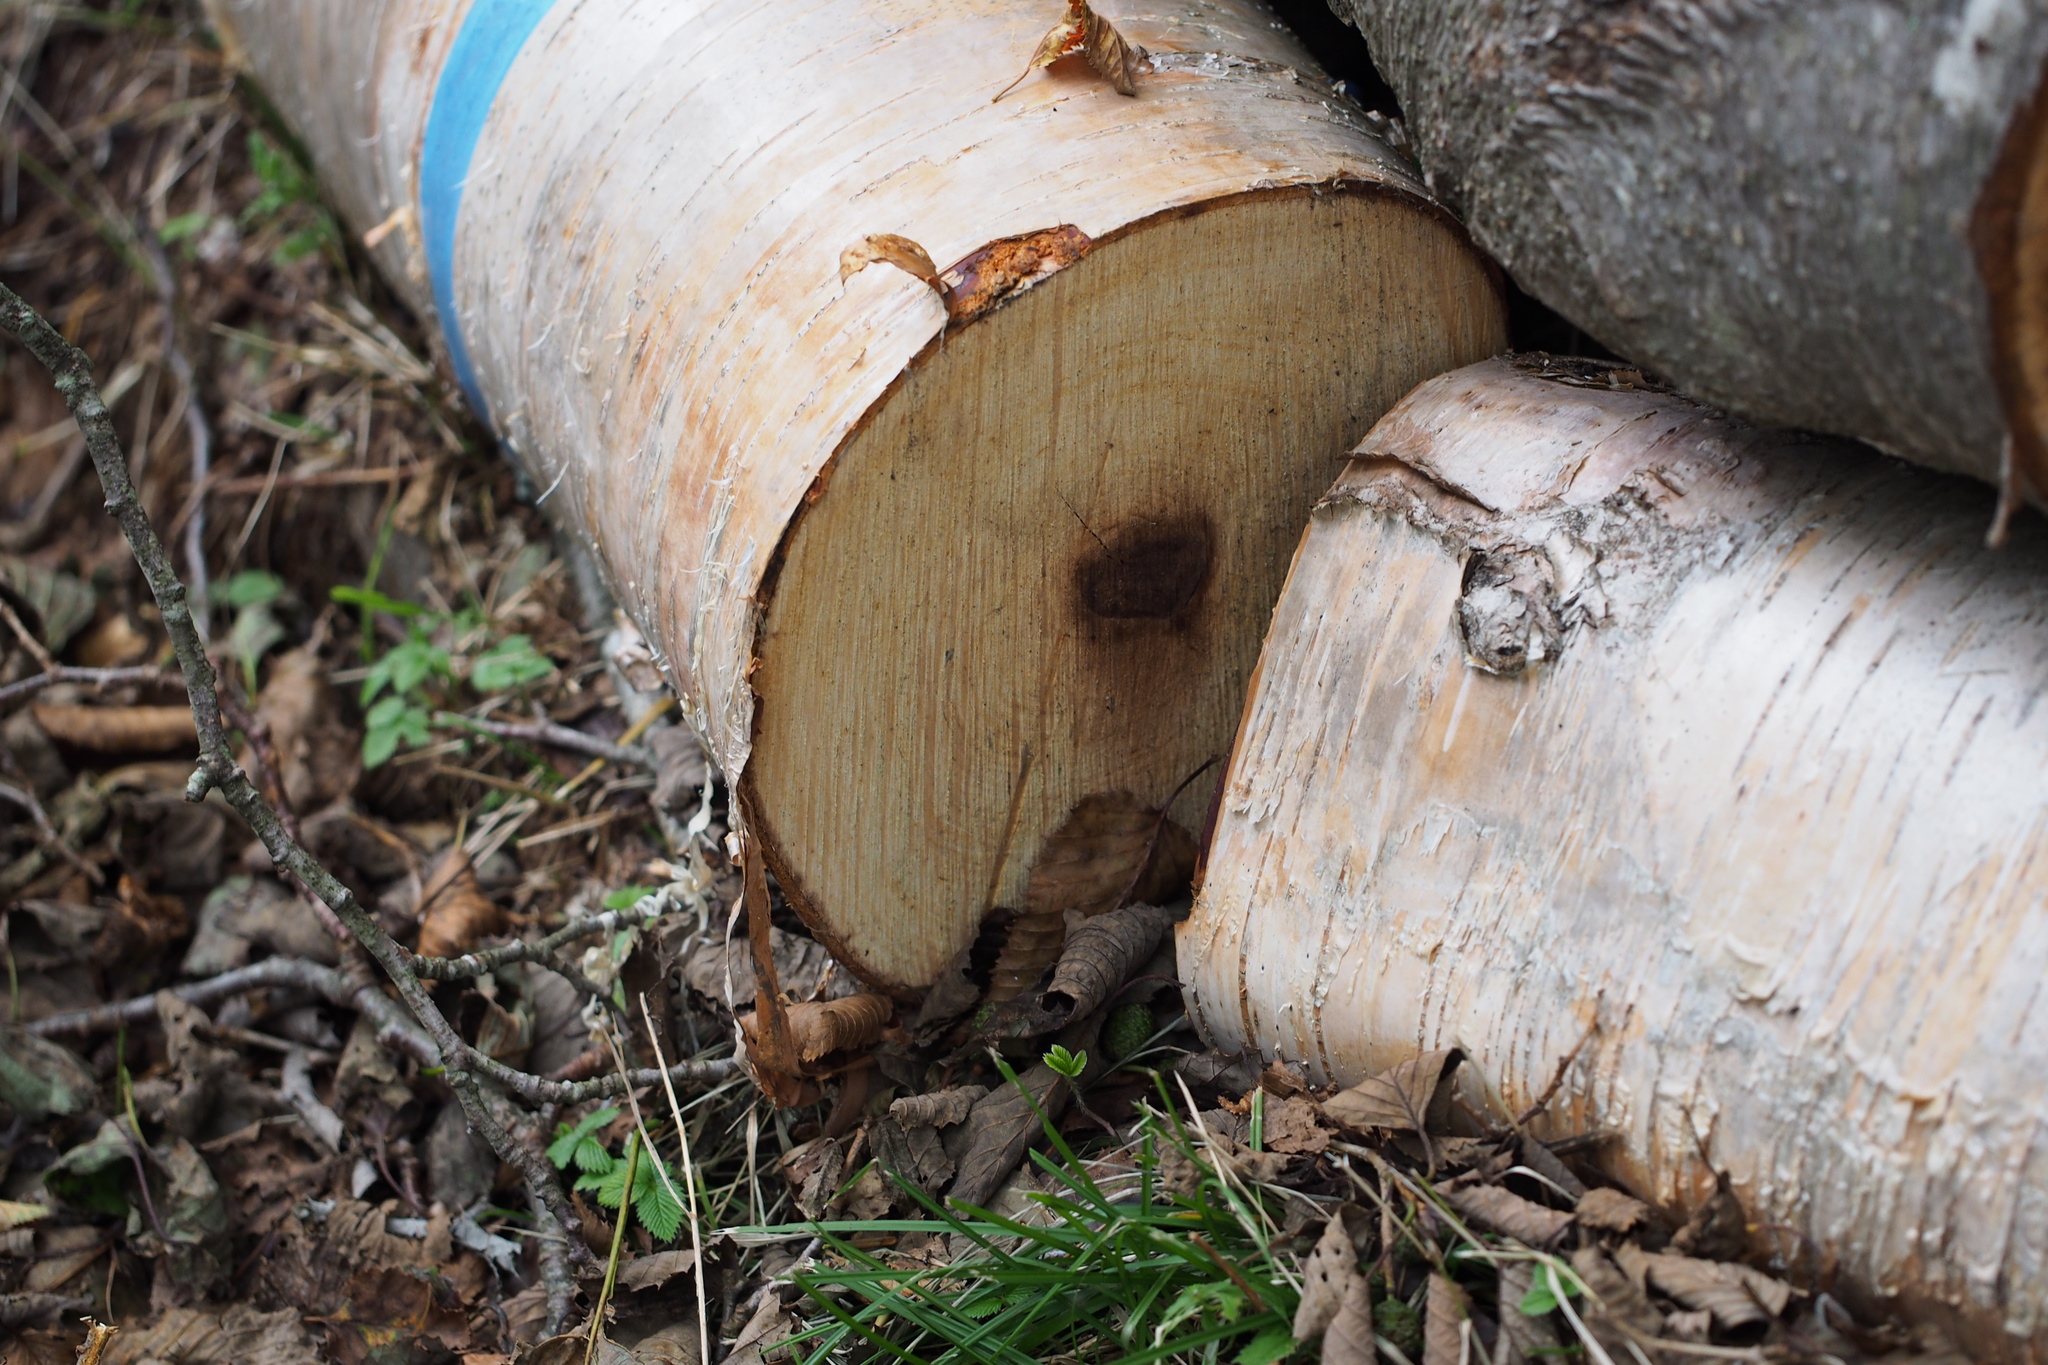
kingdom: Plantae
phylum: Tracheophyta
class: Magnoliopsida
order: Fagales
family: Betulaceae
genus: Betula
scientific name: Betula ermanii
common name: Erman's birch
